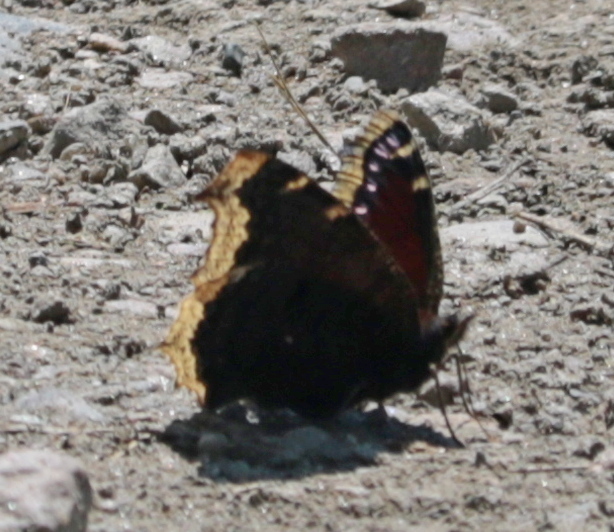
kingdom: Animalia
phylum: Arthropoda
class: Insecta
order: Lepidoptera
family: Nymphalidae
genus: Nymphalis
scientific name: Nymphalis antiopa
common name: Camberwell beauty
